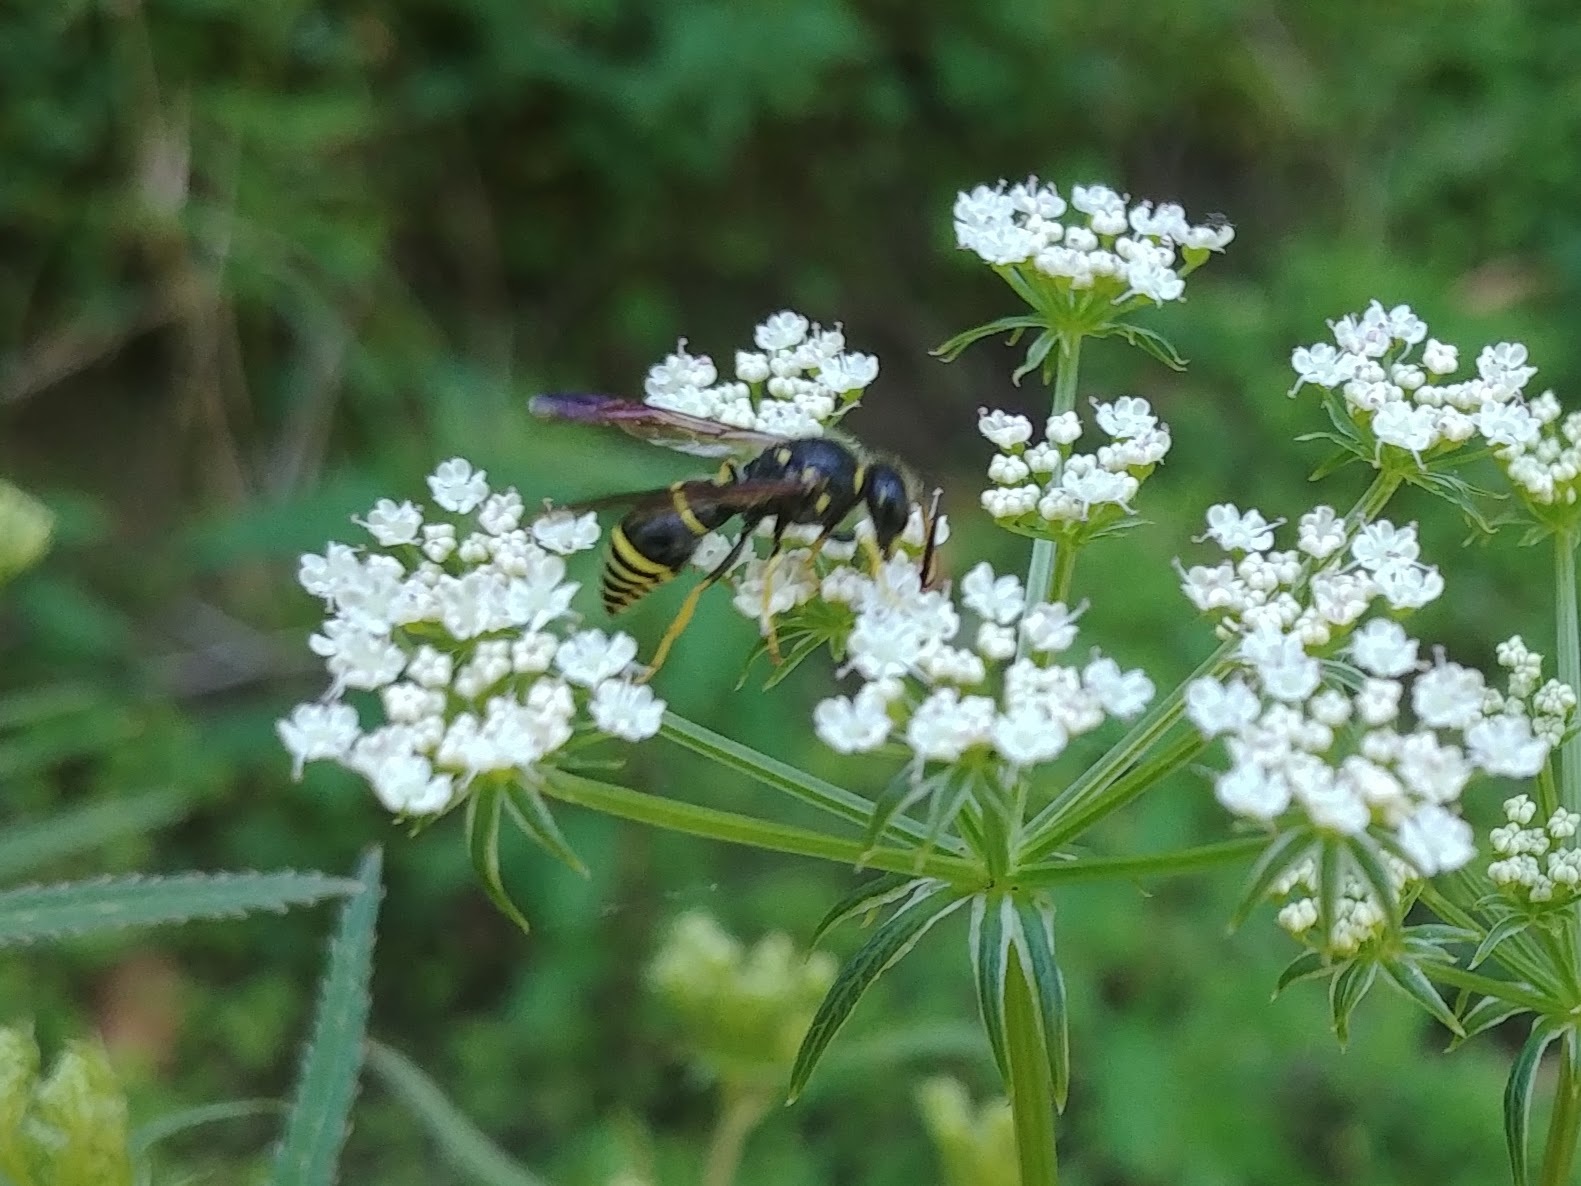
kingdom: Animalia
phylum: Arthropoda
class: Insecta
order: Hymenoptera
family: Vespidae
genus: Ancistrocerus
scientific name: Ancistrocerus
